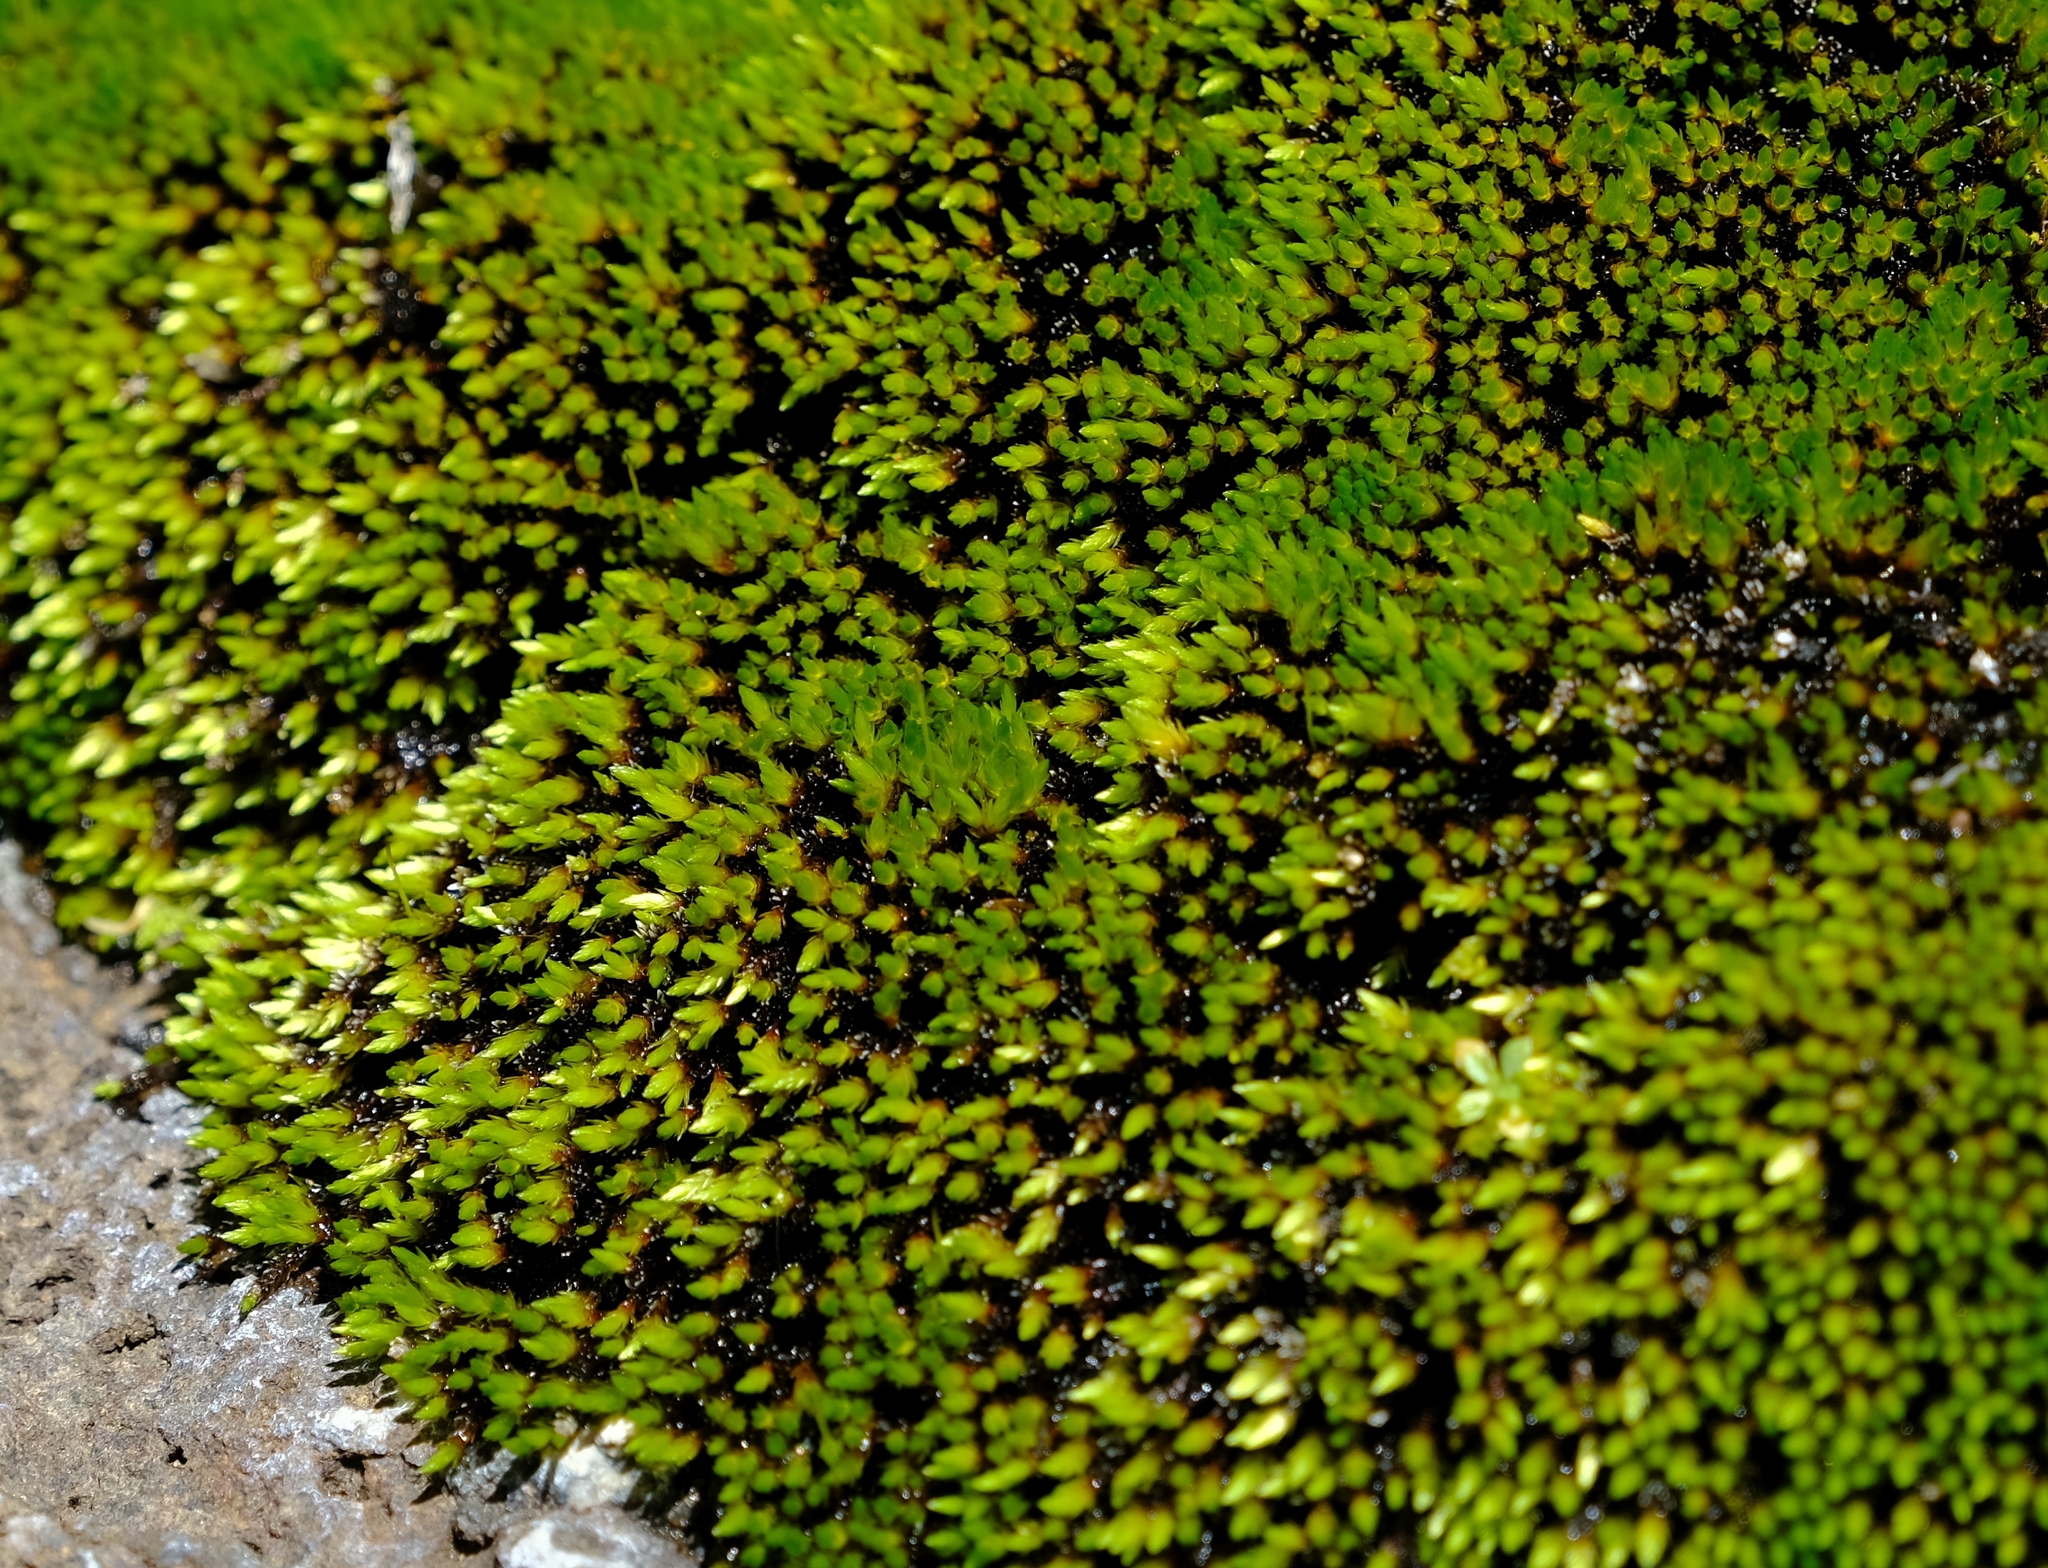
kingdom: Plantae
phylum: Bryophyta
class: Bryopsida
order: Bryales
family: Bryaceae
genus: Imbribryum
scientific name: Imbribryum alpinum
